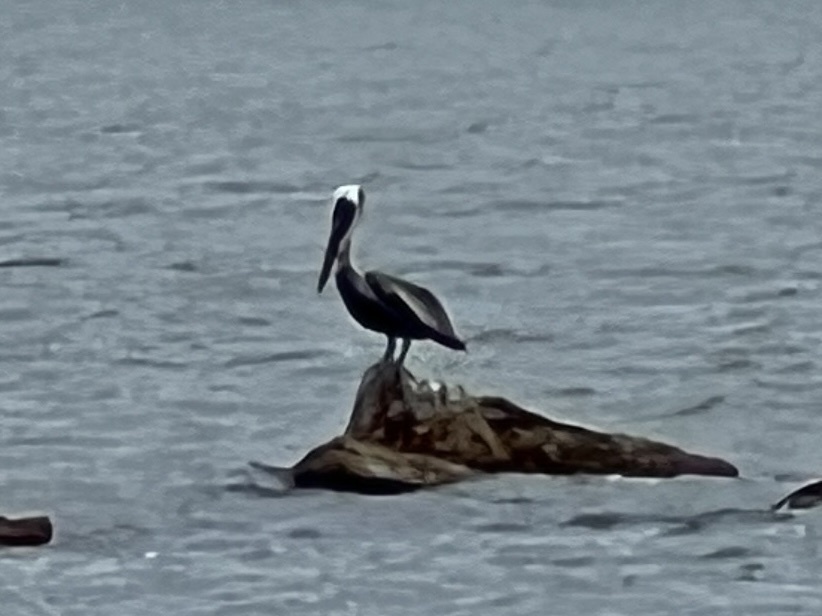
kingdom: Animalia
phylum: Chordata
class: Aves
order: Pelecaniformes
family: Pelecanidae
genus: Pelecanus
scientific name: Pelecanus occidentalis
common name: Brown pelican
